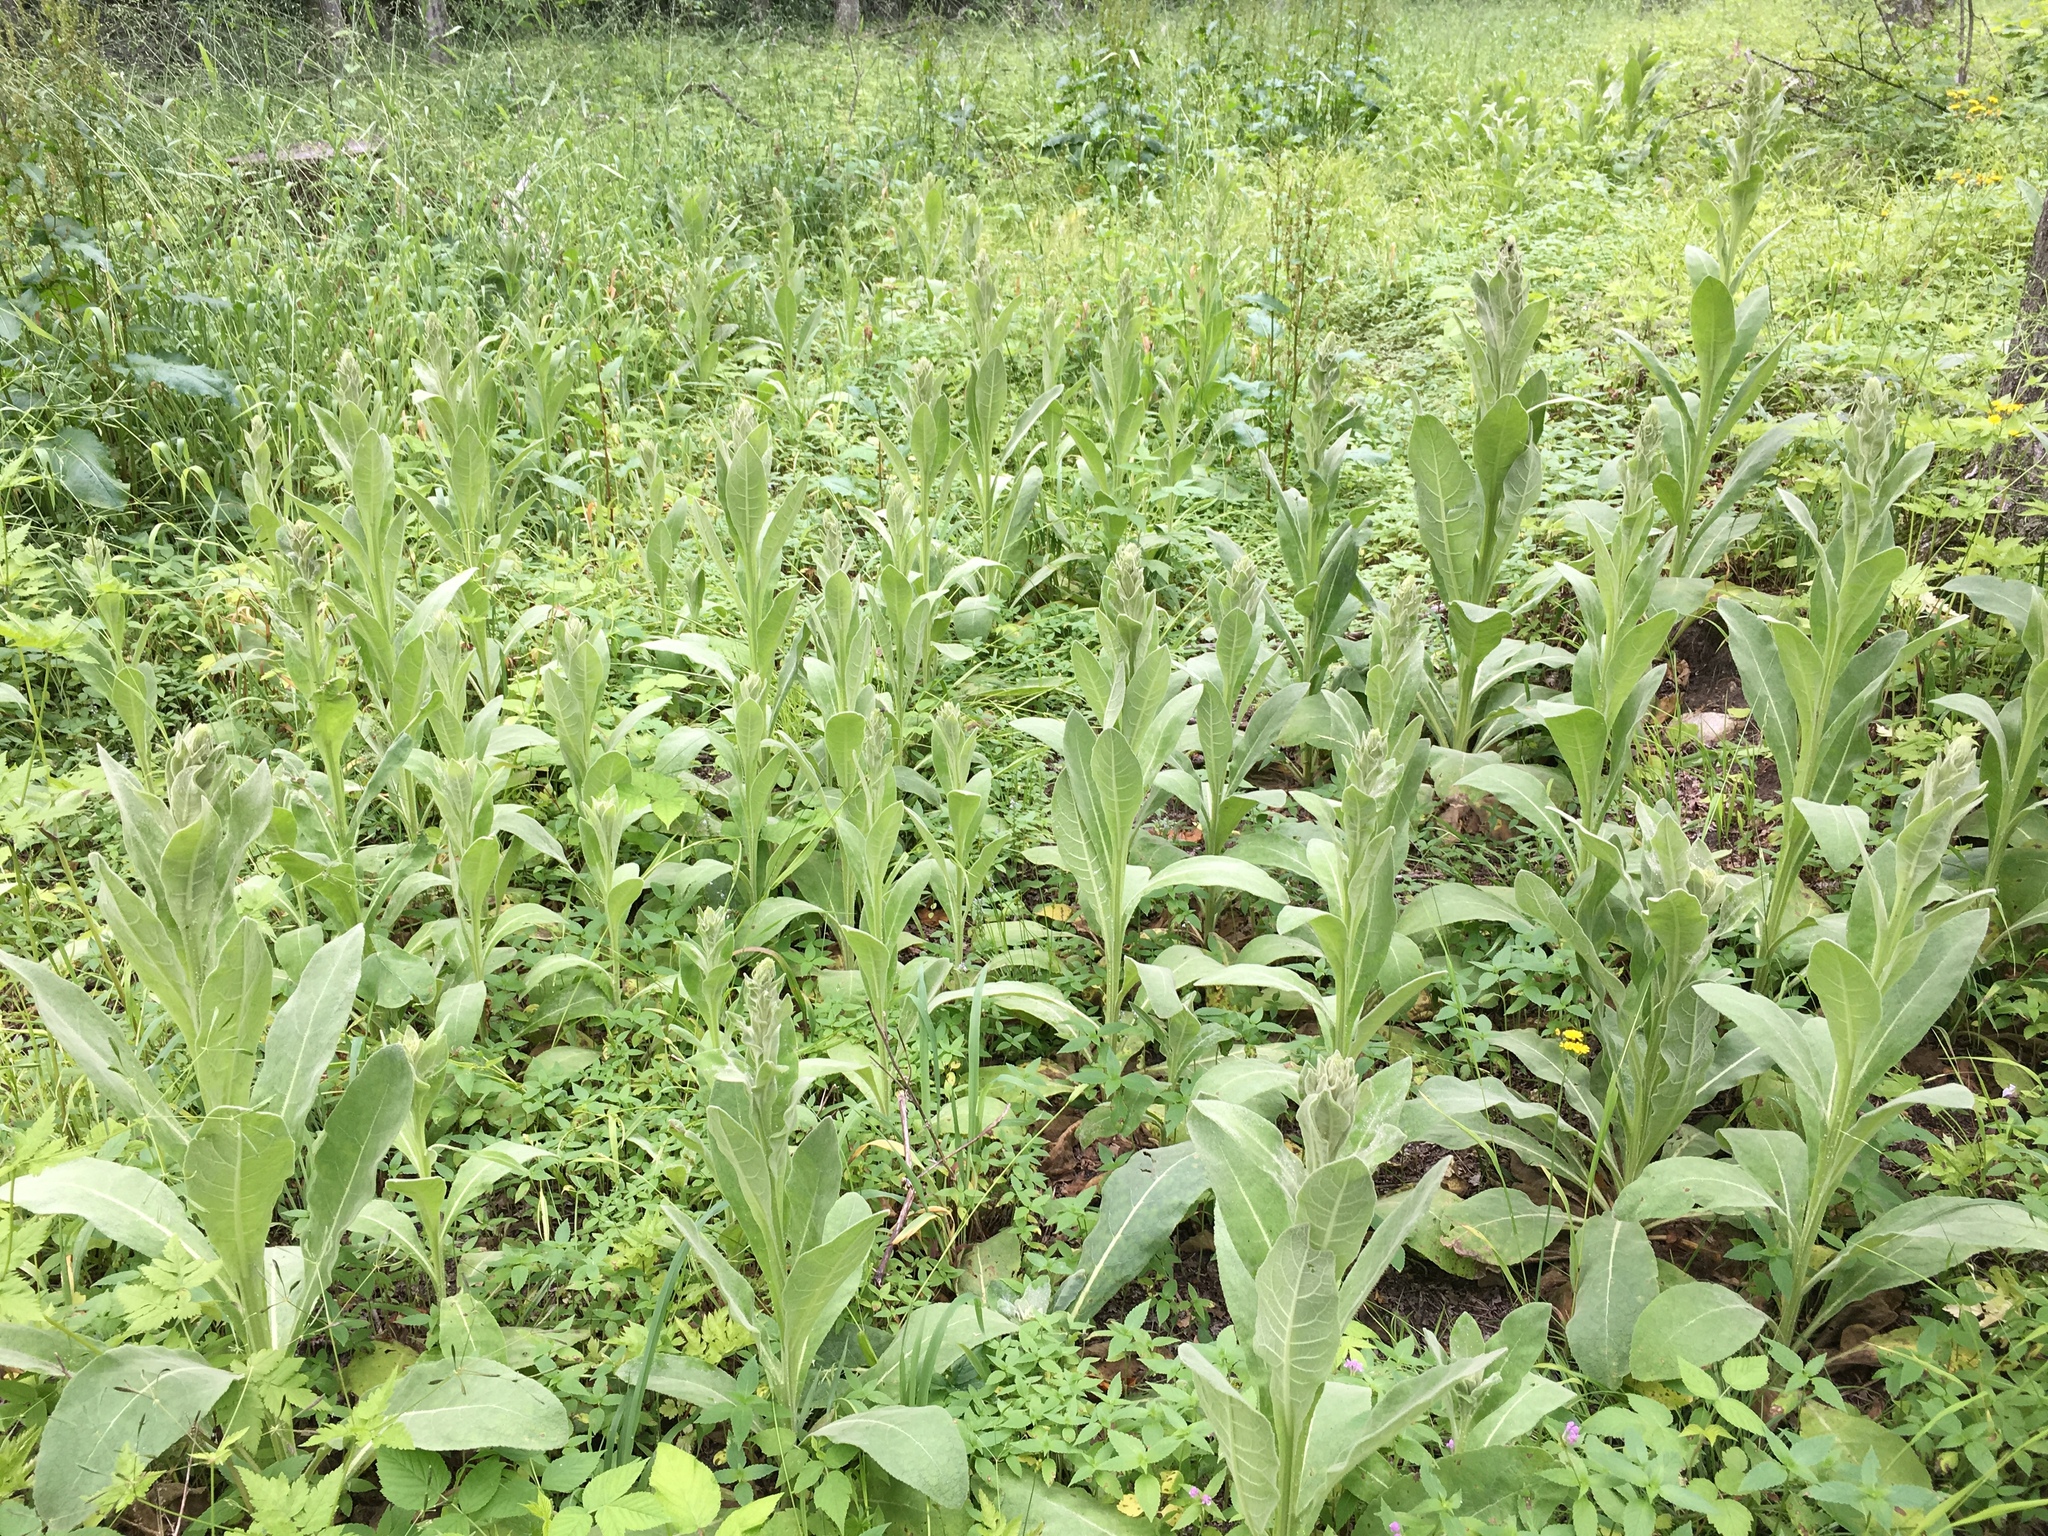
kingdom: Plantae
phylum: Tracheophyta
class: Magnoliopsida
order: Lamiales
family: Scrophulariaceae
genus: Verbascum
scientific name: Verbascum thapsus
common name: Common mullein
